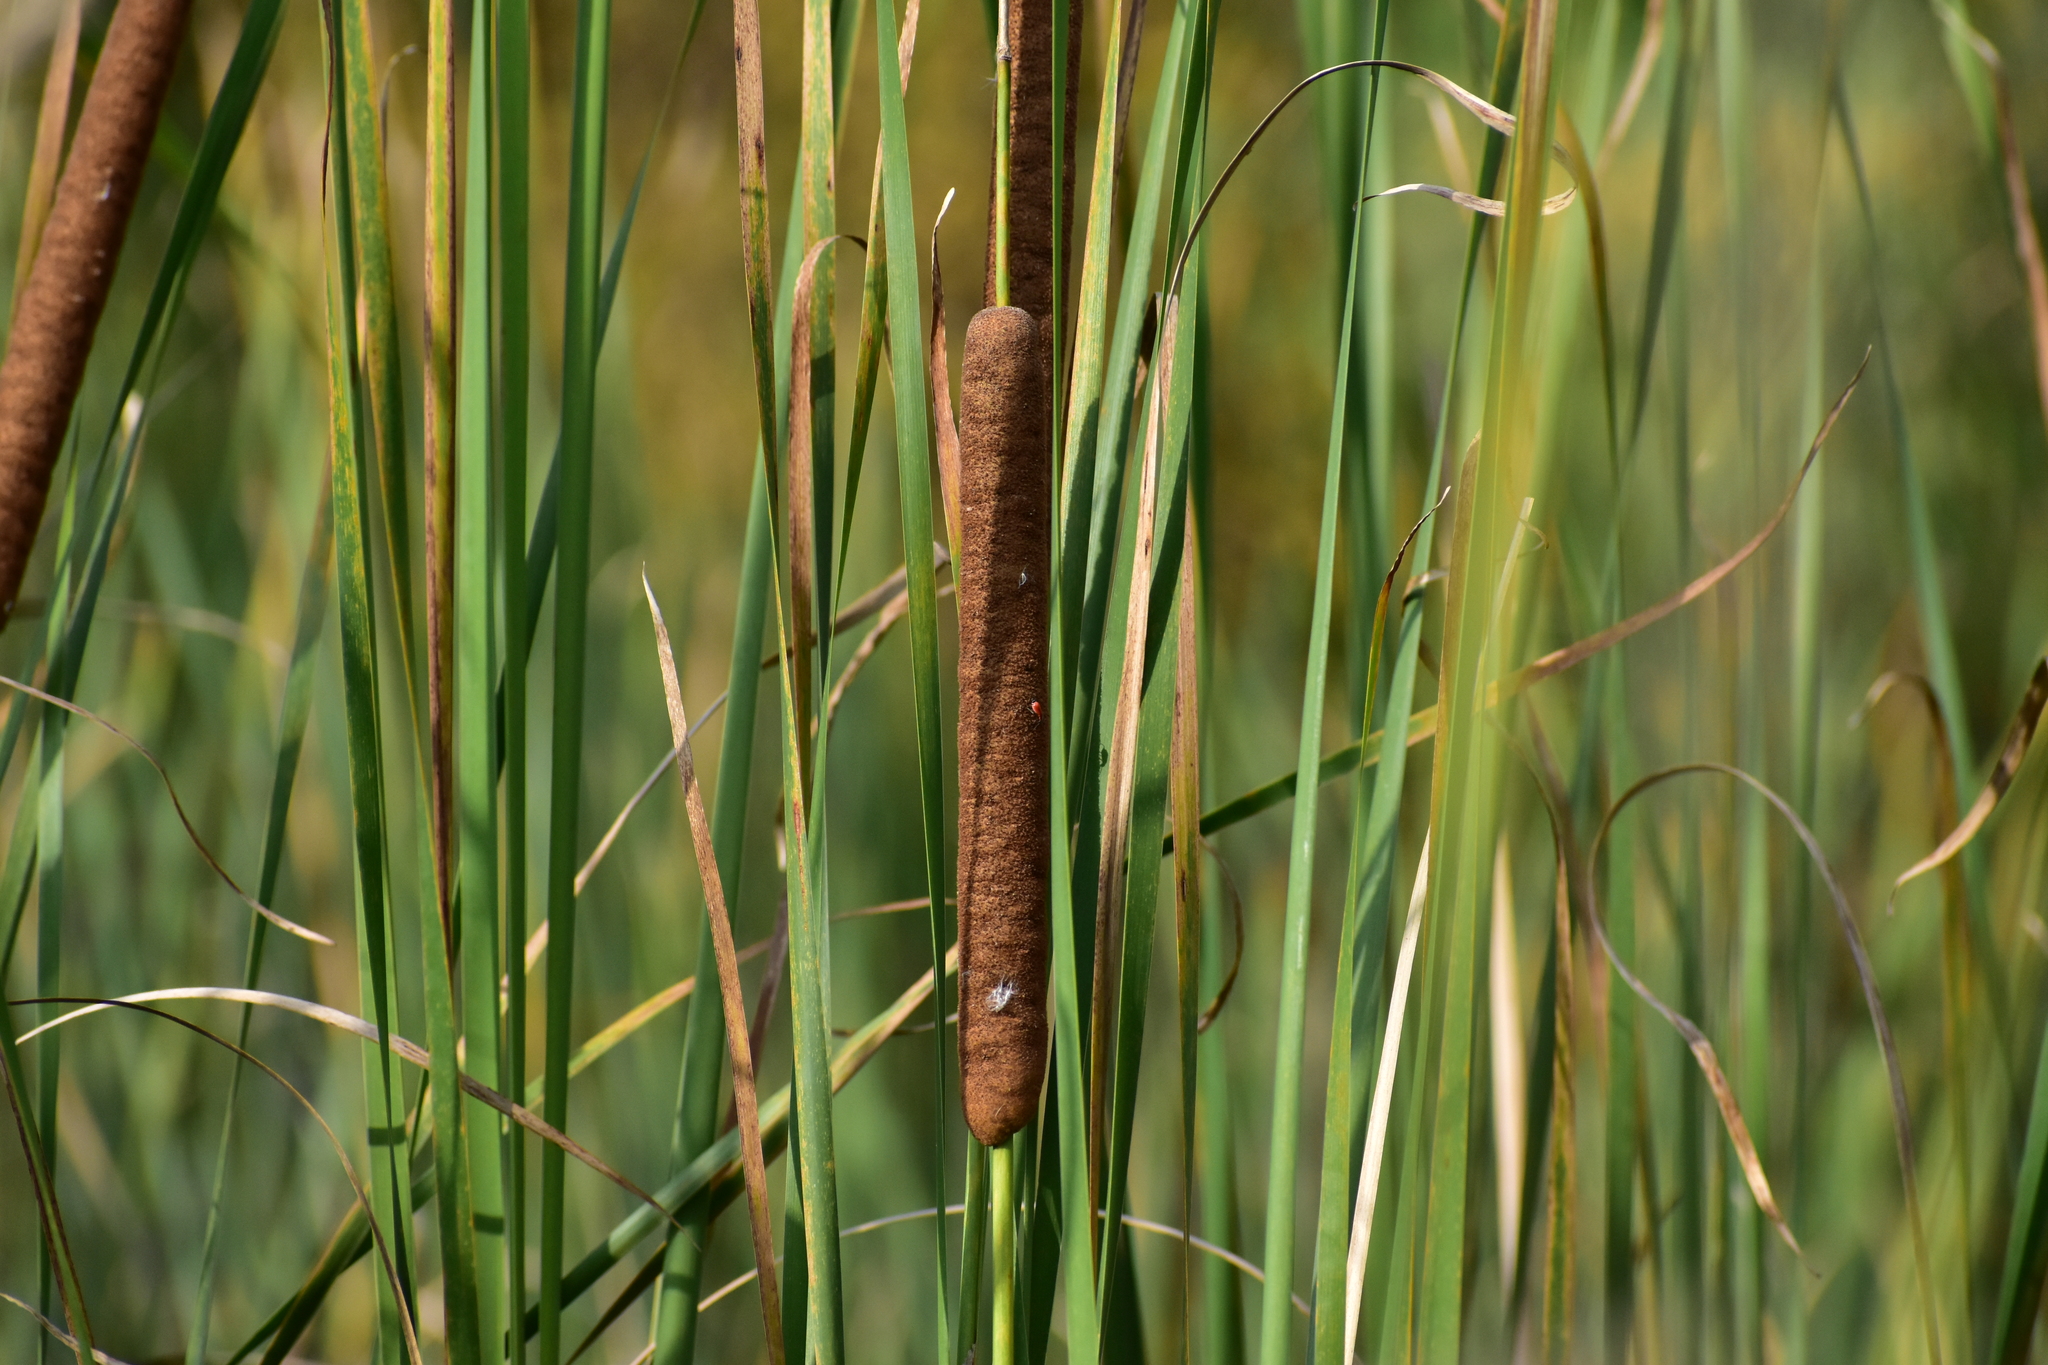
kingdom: Plantae
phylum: Tracheophyta
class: Liliopsida
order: Poales
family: Typhaceae
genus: Typha
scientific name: Typha angustifolia
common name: Lesser bulrush
